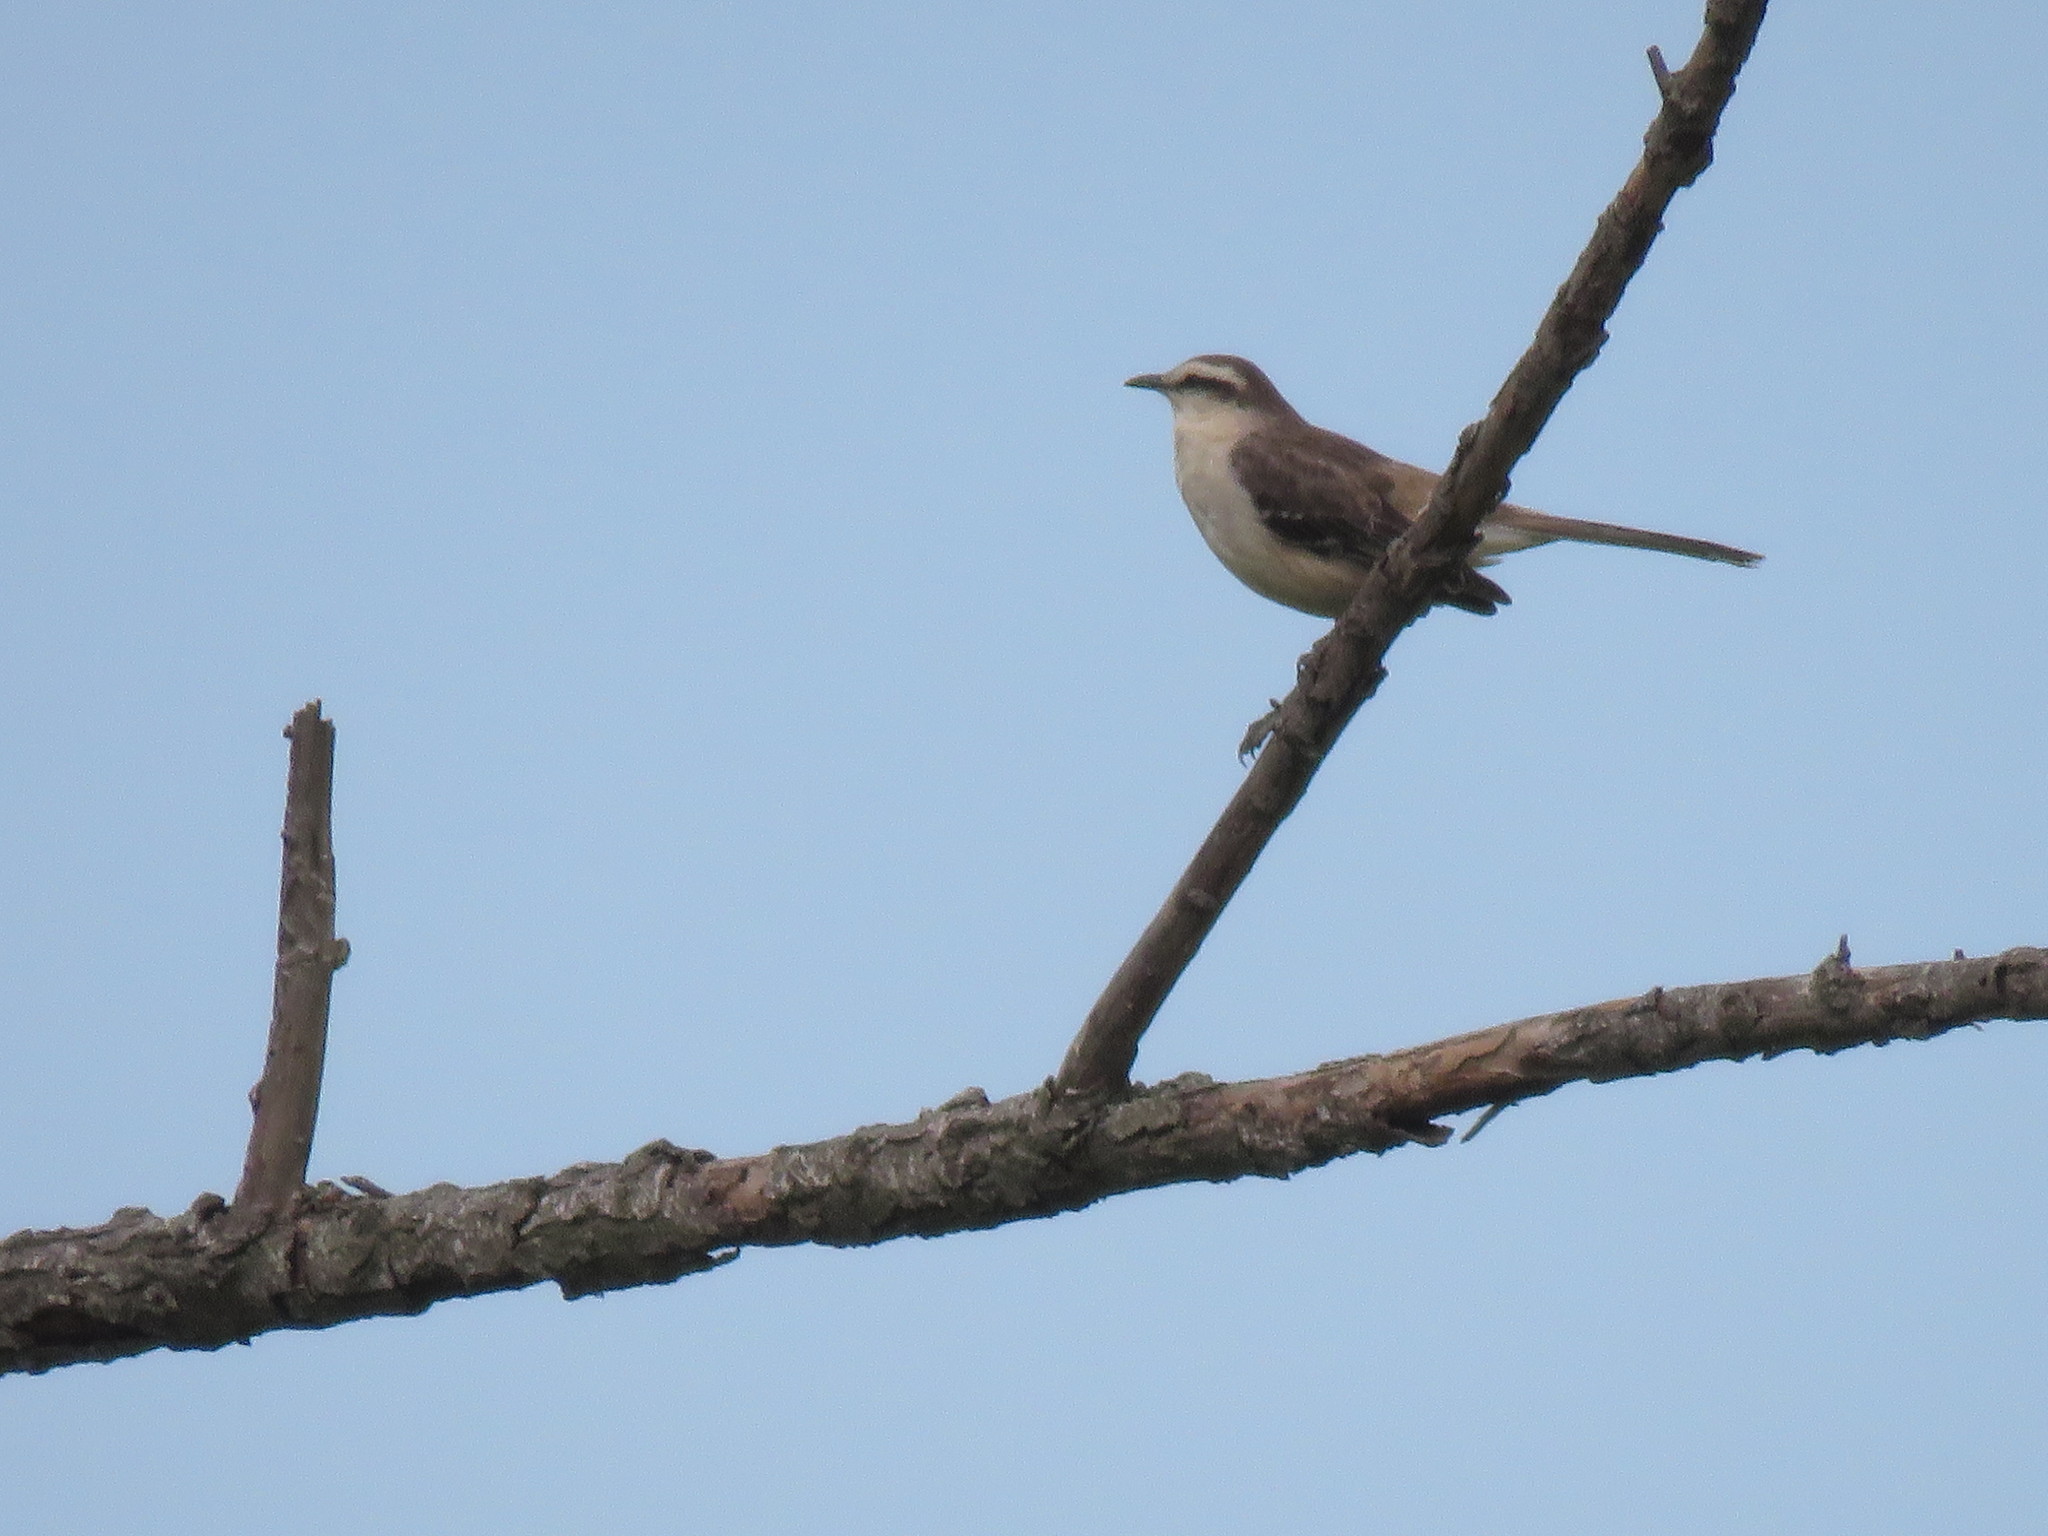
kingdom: Animalia
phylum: Chordata
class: Aves
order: Passeriformes
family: Mimidae
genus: Mimus
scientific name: Mimus saturninus
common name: Chalk-browed mockingbird
